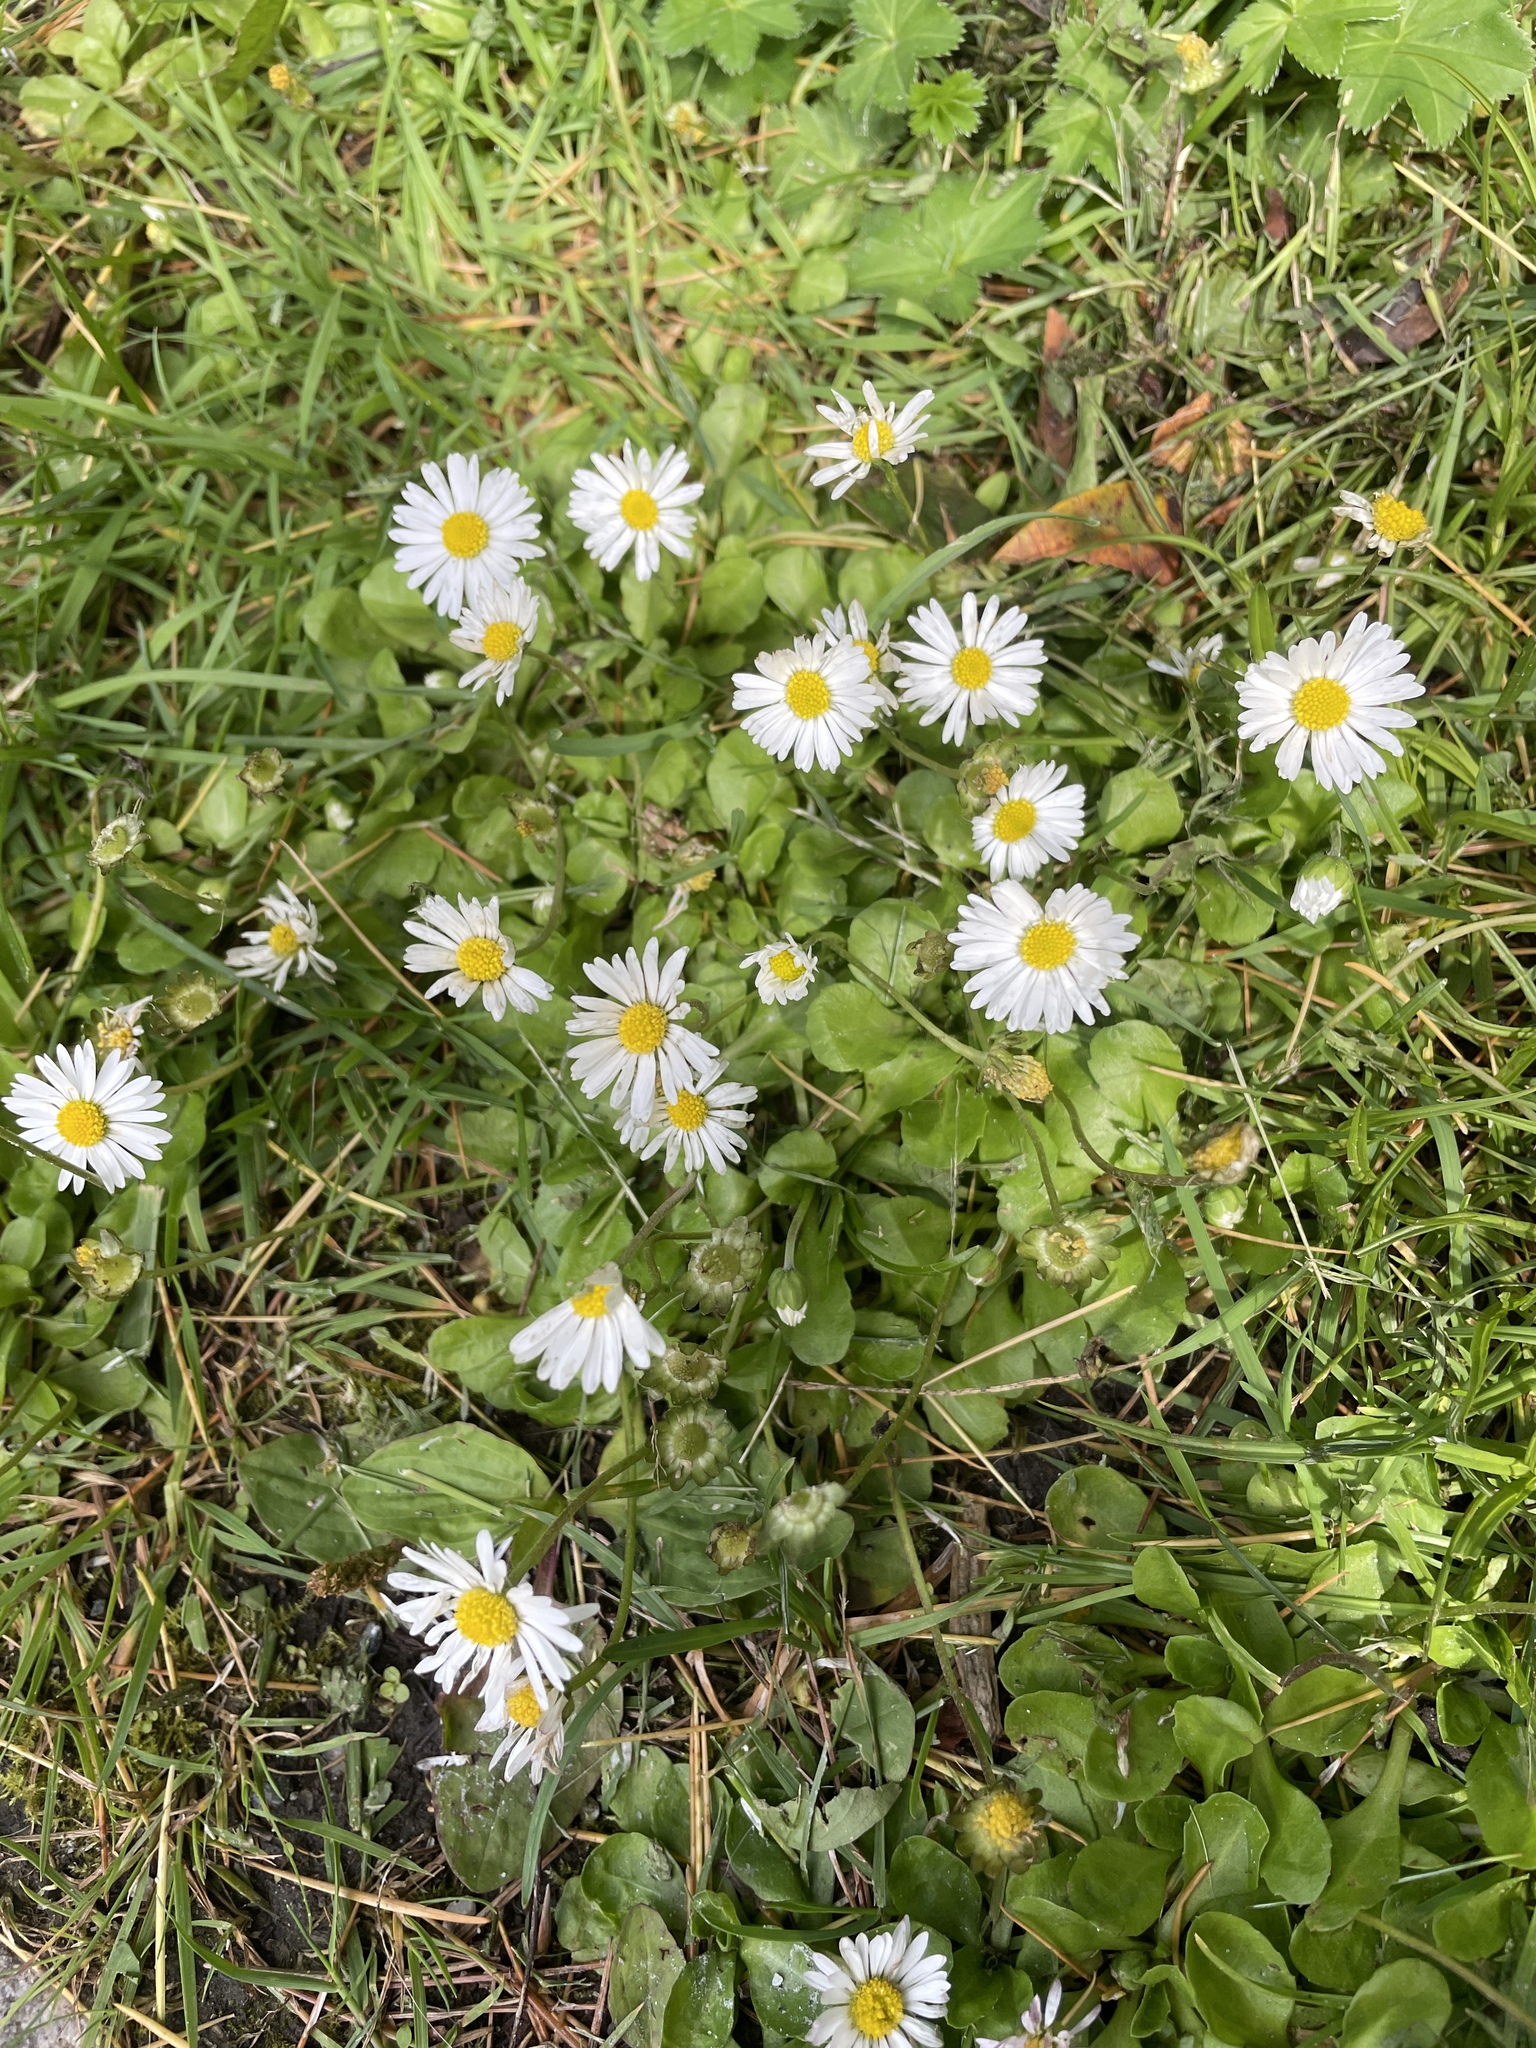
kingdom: Plantae
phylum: Tracheophyta
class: Magnoliopsida
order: Asterales
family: Asteraceae
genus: Bellis
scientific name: Bellis perennis
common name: Lawndaisy
